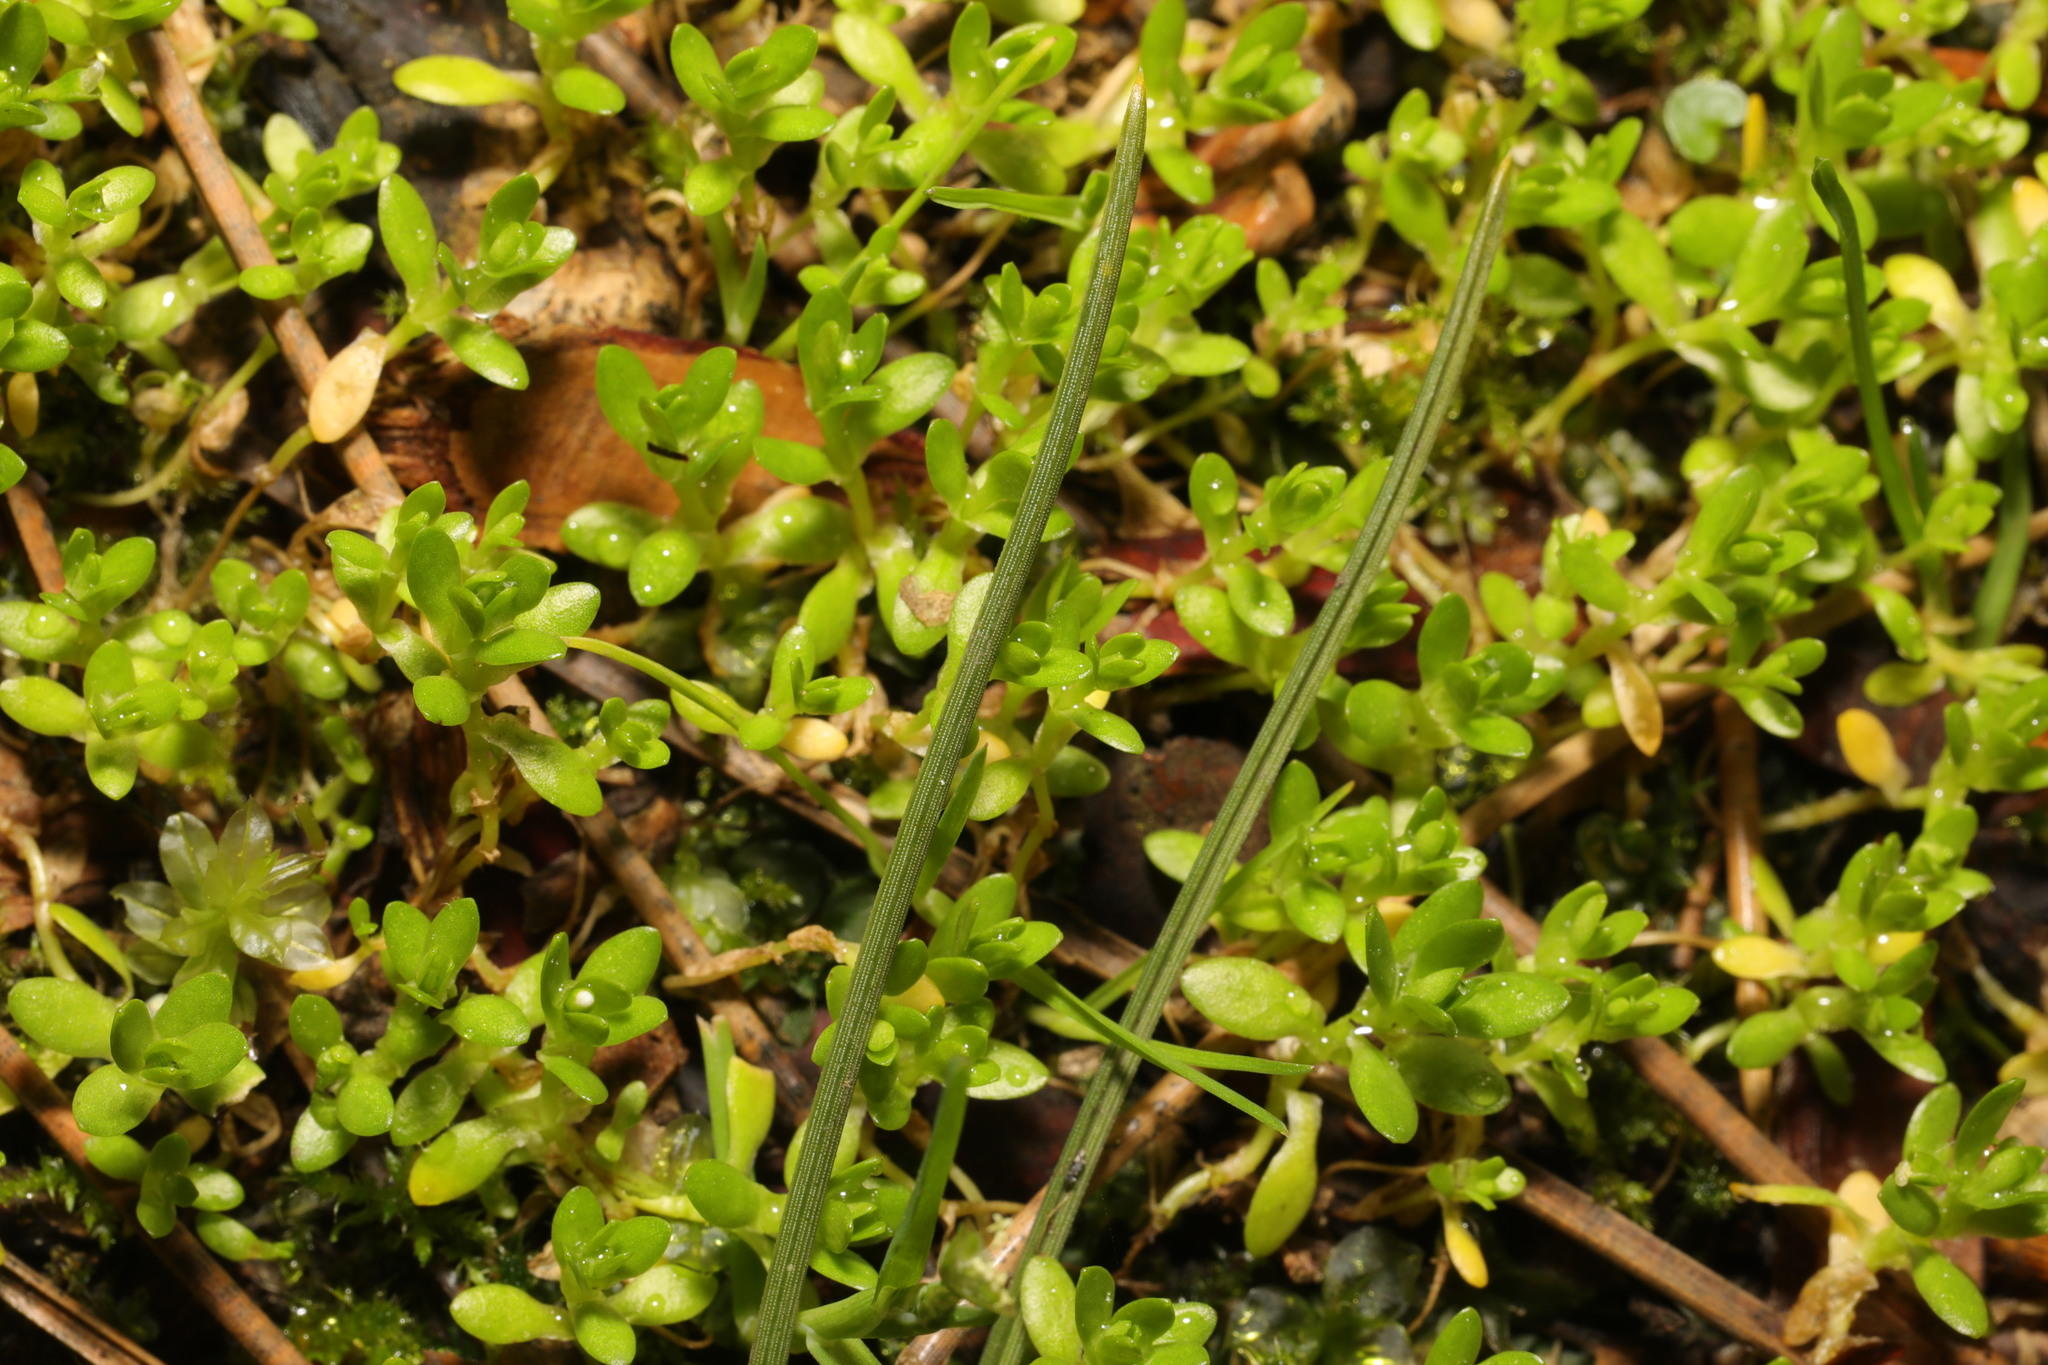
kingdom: Plantae
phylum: Tracheophyta
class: Magnoliopsida
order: Caryophyllales
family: Montiaceae
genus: Montia
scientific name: Montia fontana
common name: Blinks
